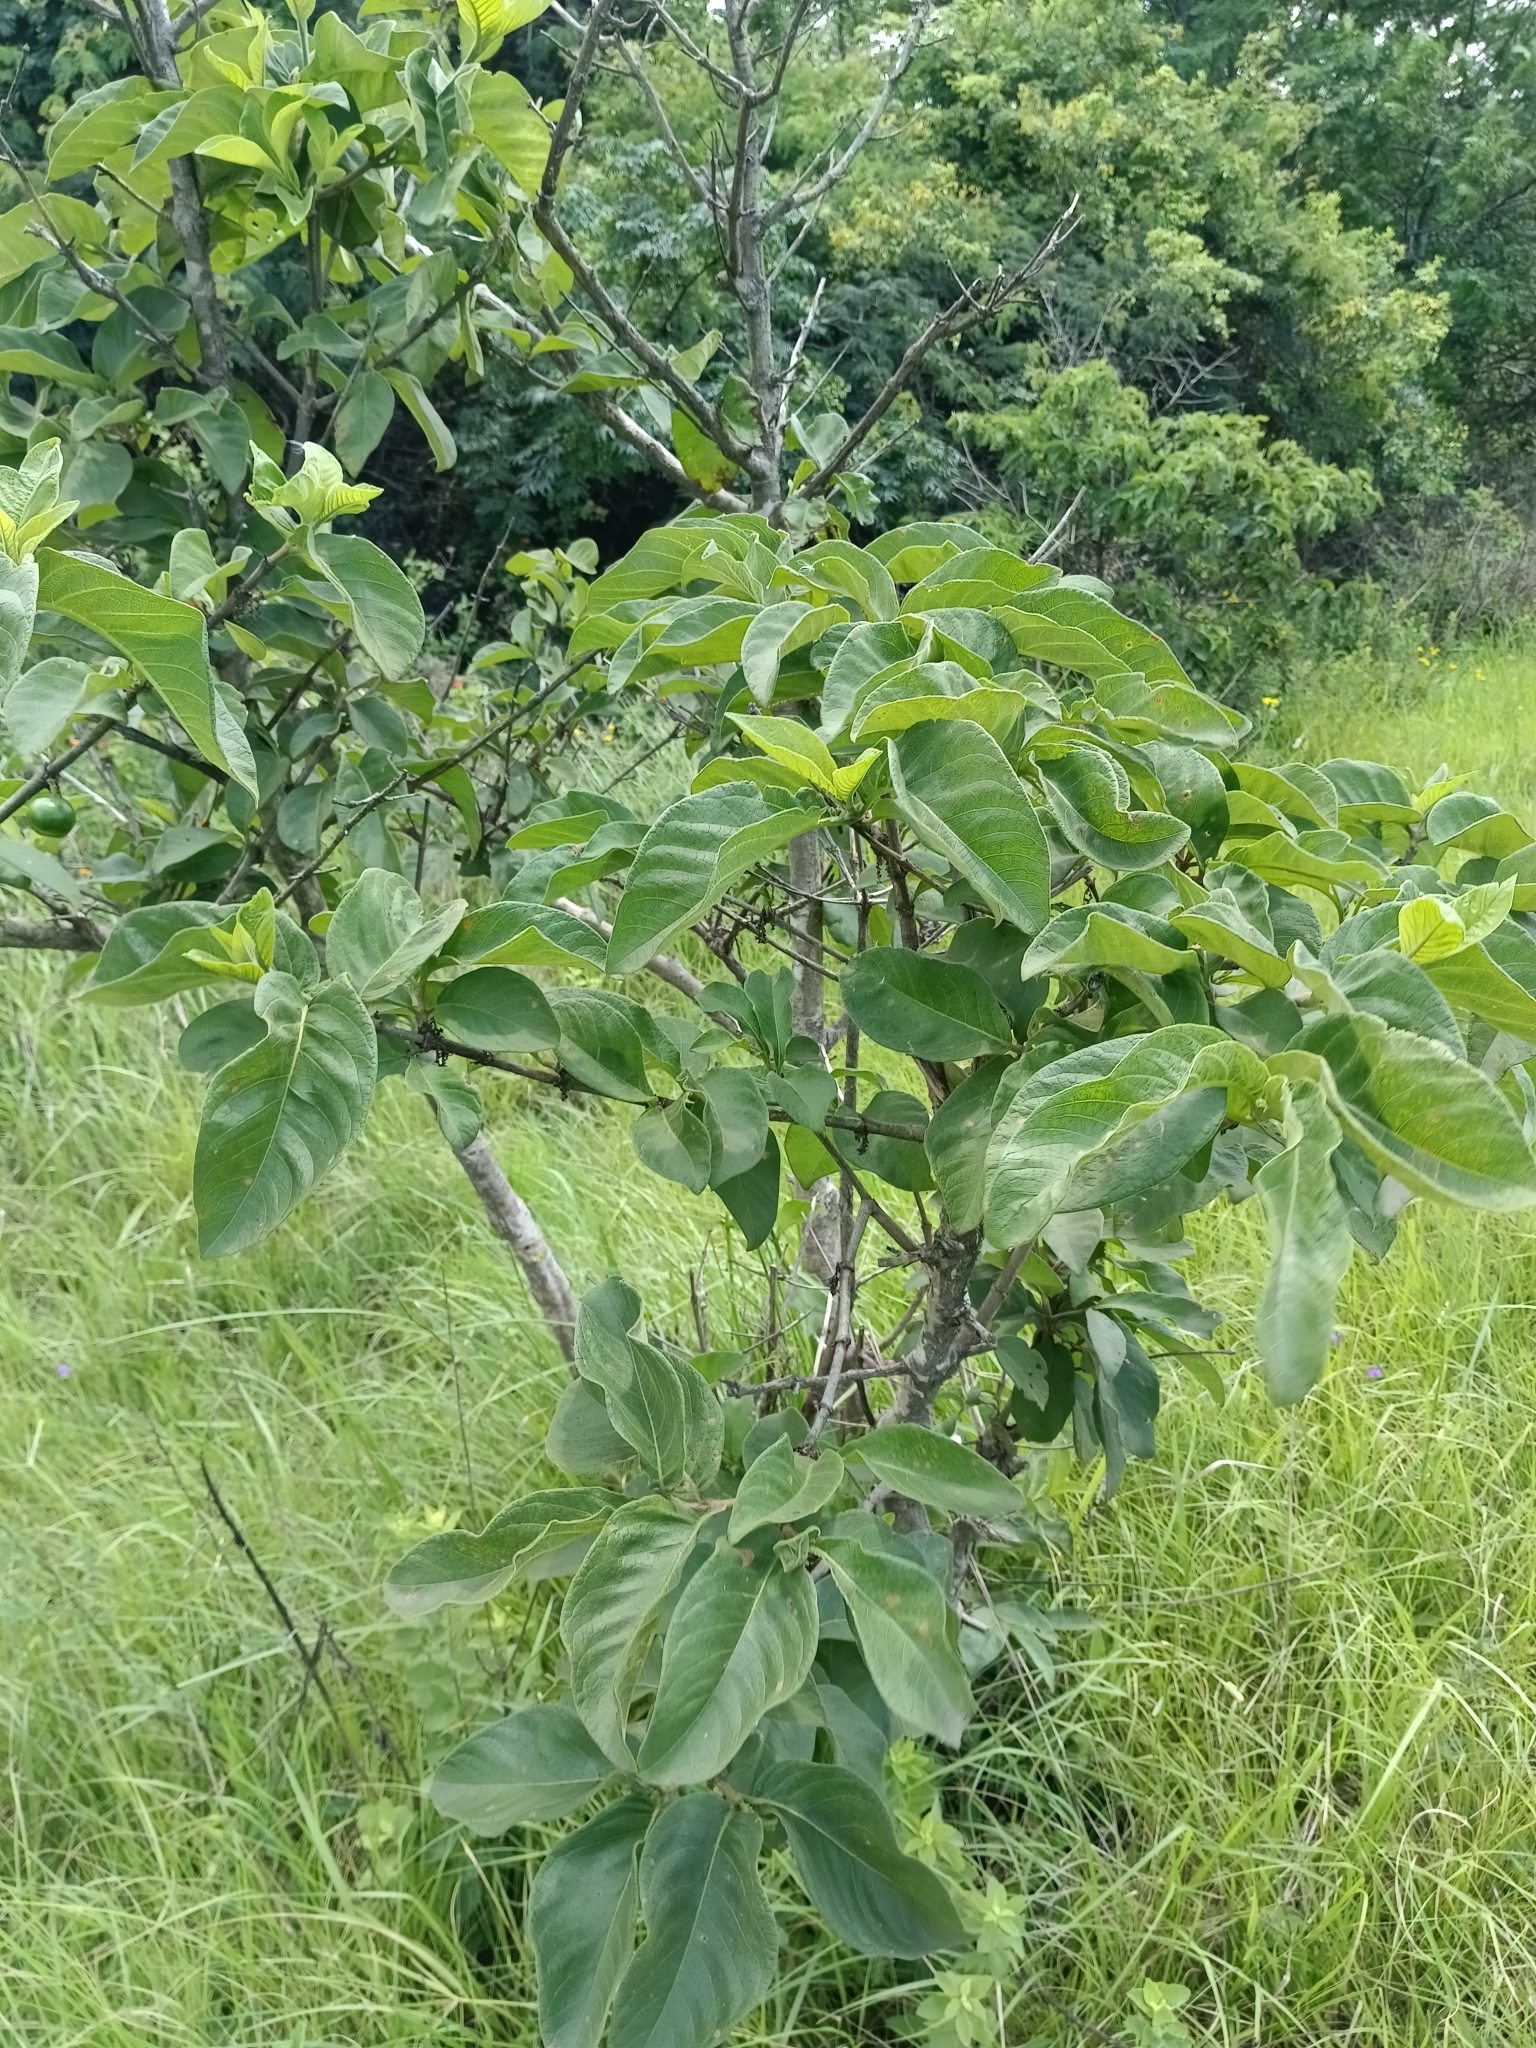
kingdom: Plantae
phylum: Tracheophyta
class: Magnoliopsida
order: Gentianales
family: Rubiaceae
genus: Vangueria
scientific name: Vangueria infausta
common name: Medlar
